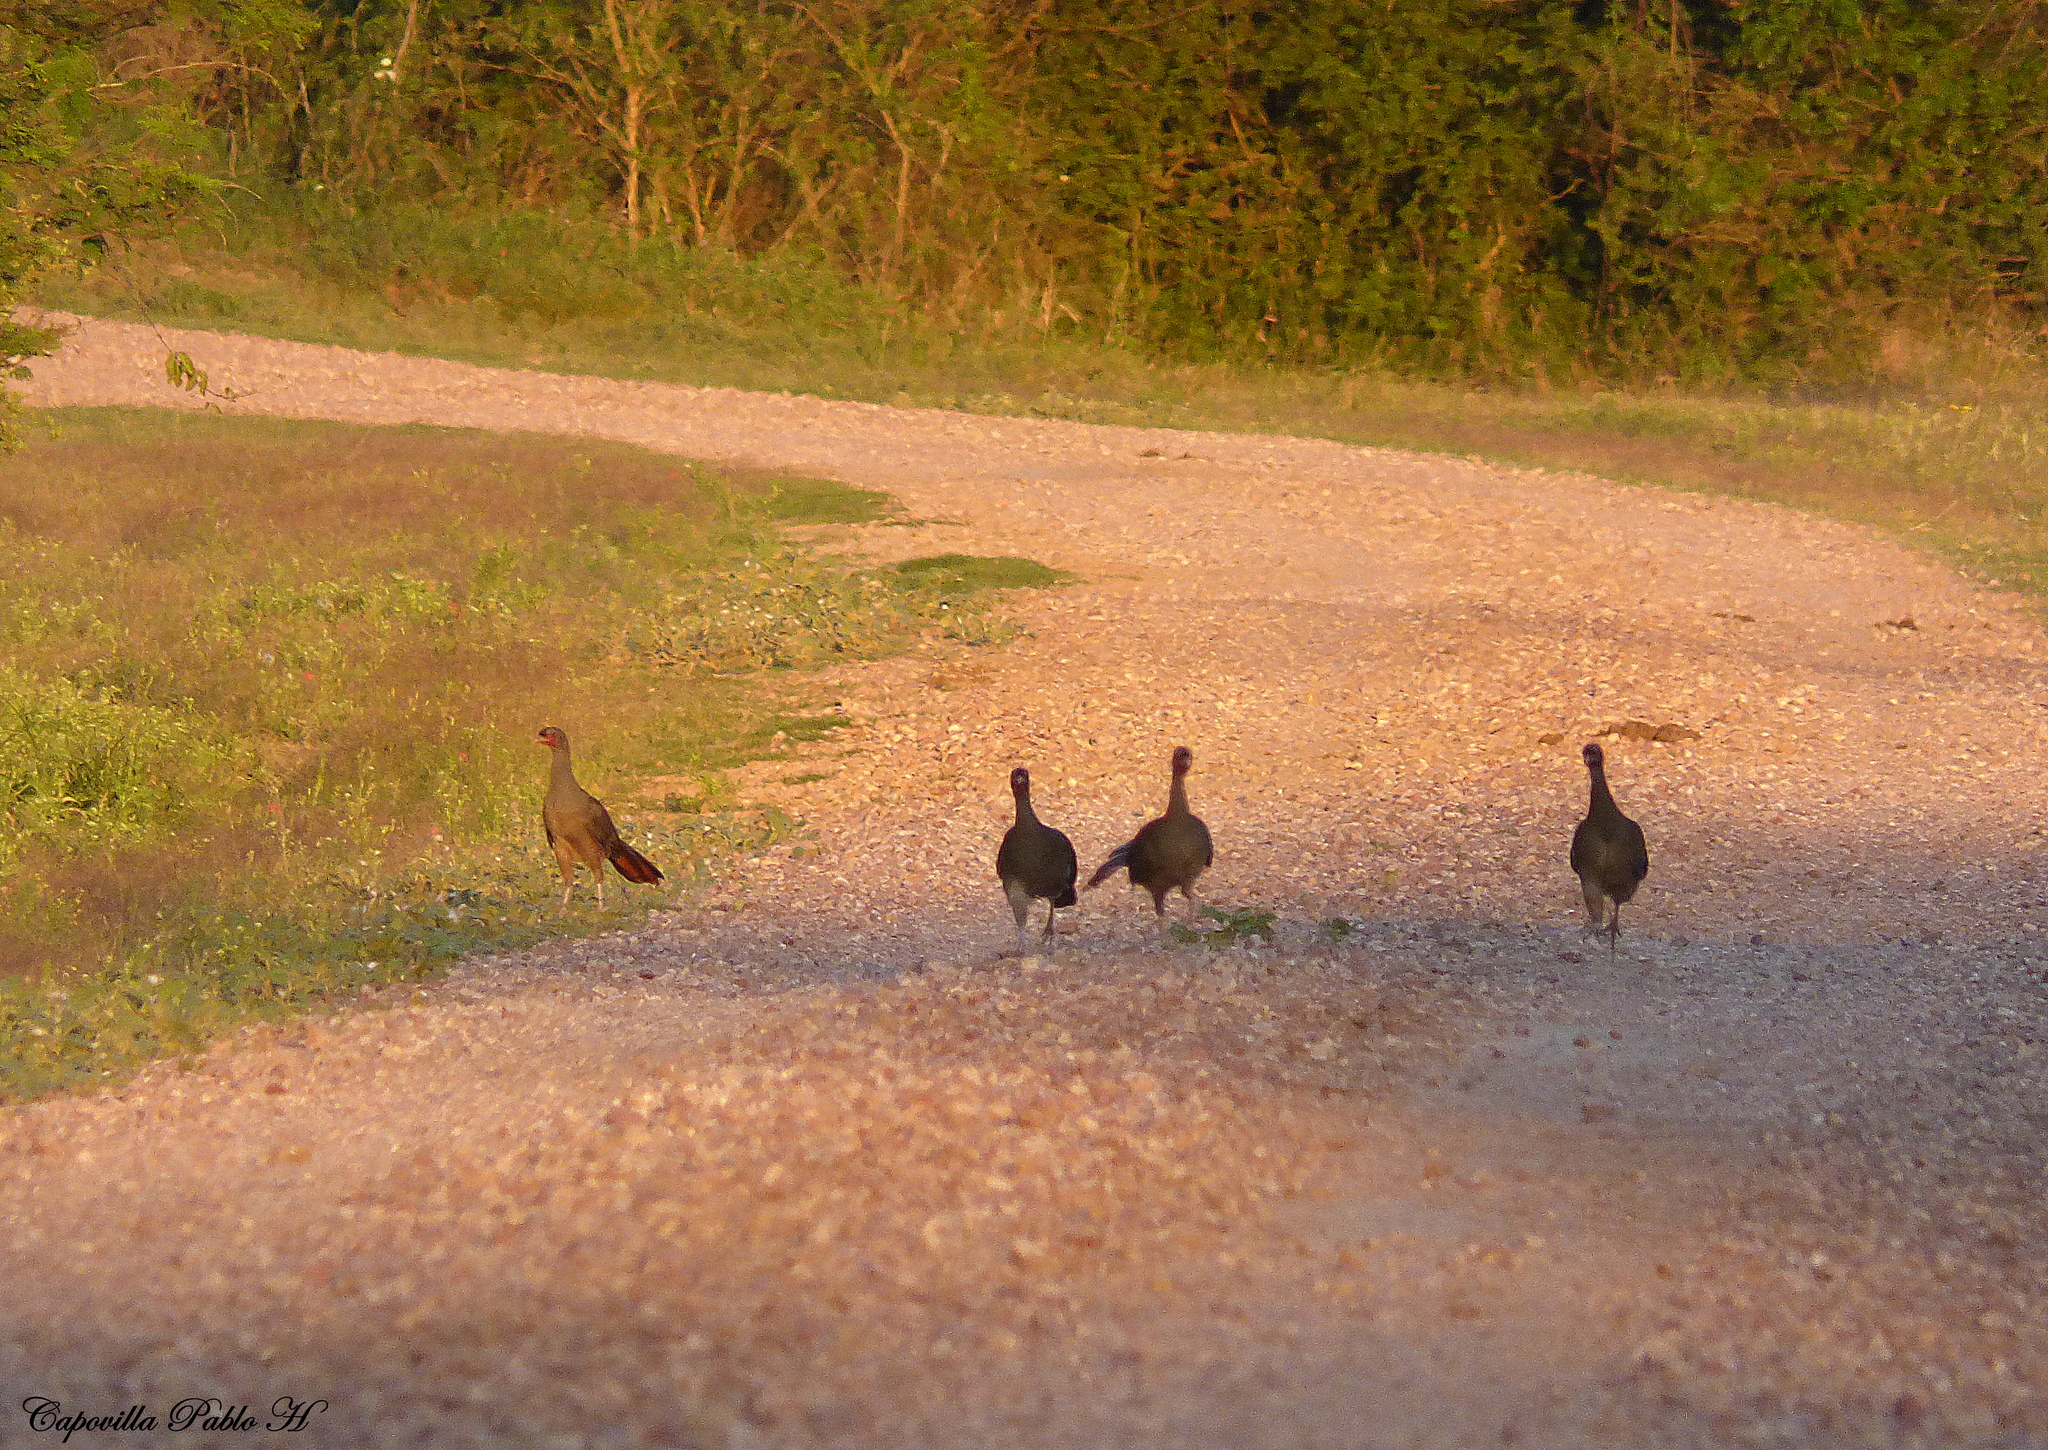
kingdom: Animalia
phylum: Chordata
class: Aves
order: Galliformes
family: Cracidae
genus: Ortalis
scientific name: Ortalis canicollis
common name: Chaco chachalaca
